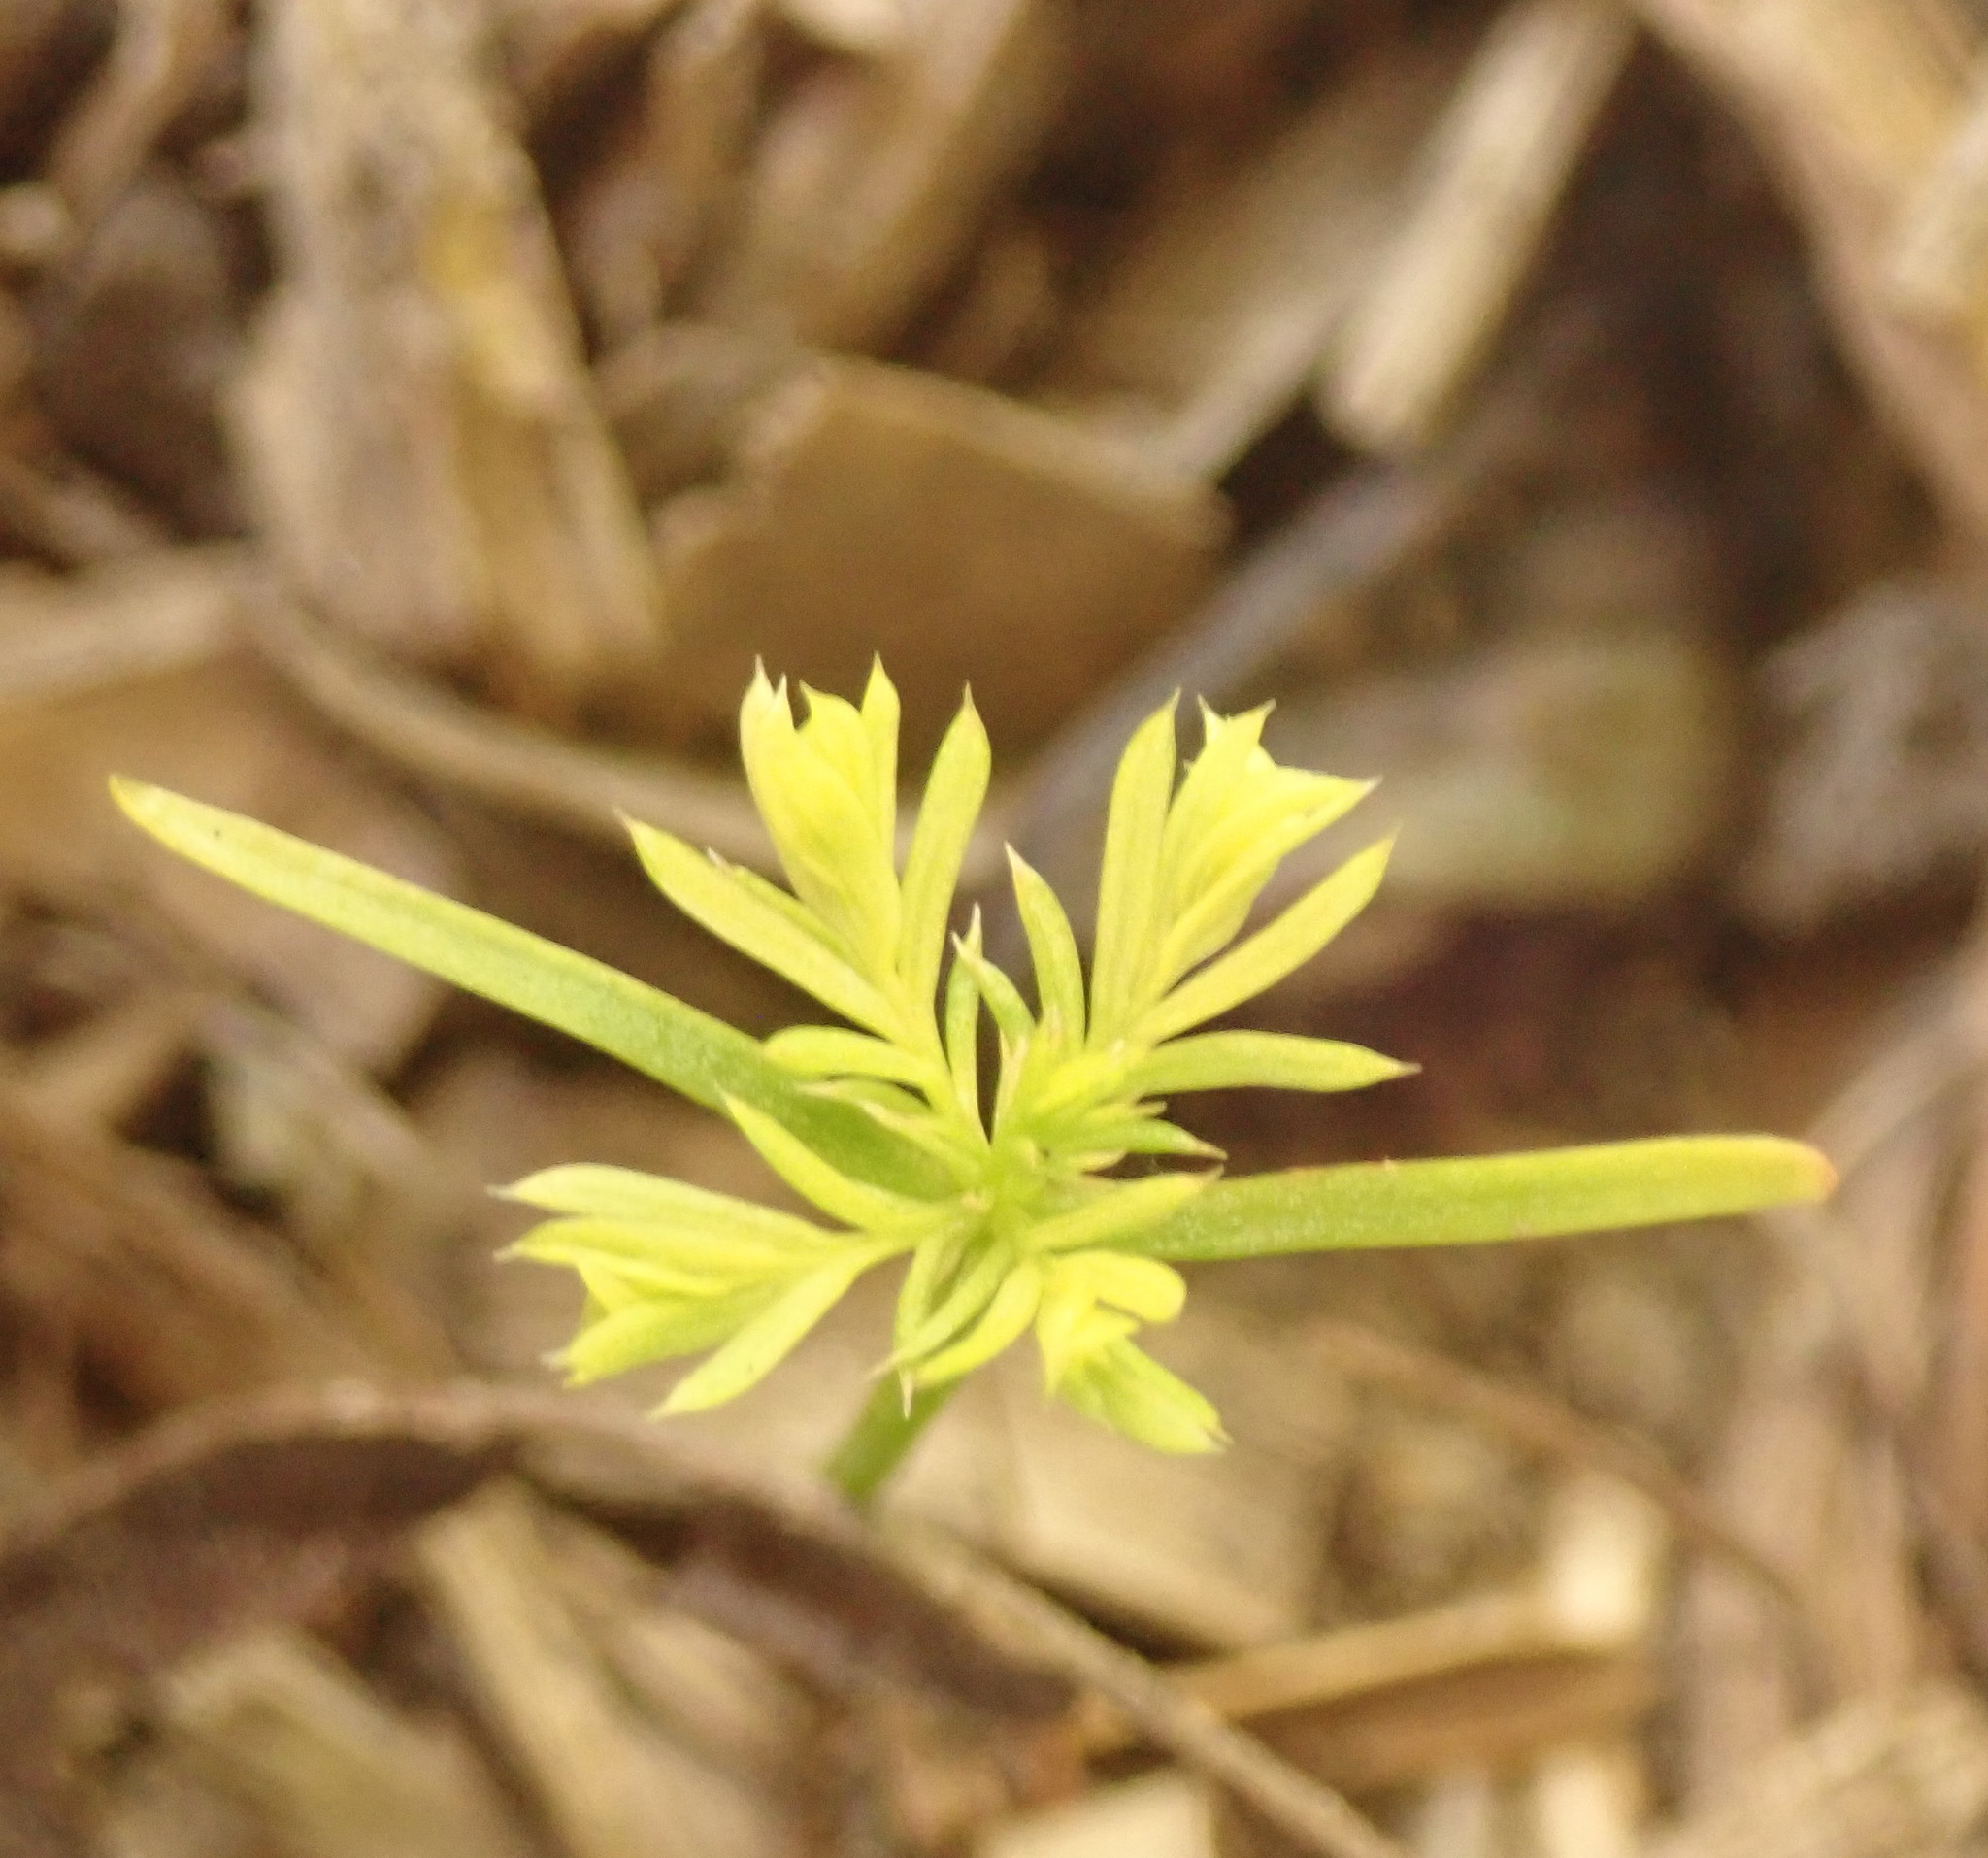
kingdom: Plantae
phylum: Tracheophyta
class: Pinopsida
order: Pinales
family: Podocarpaceae
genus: Dacrycarpus
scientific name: Dacrycarpus dacrydioides
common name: White pine
